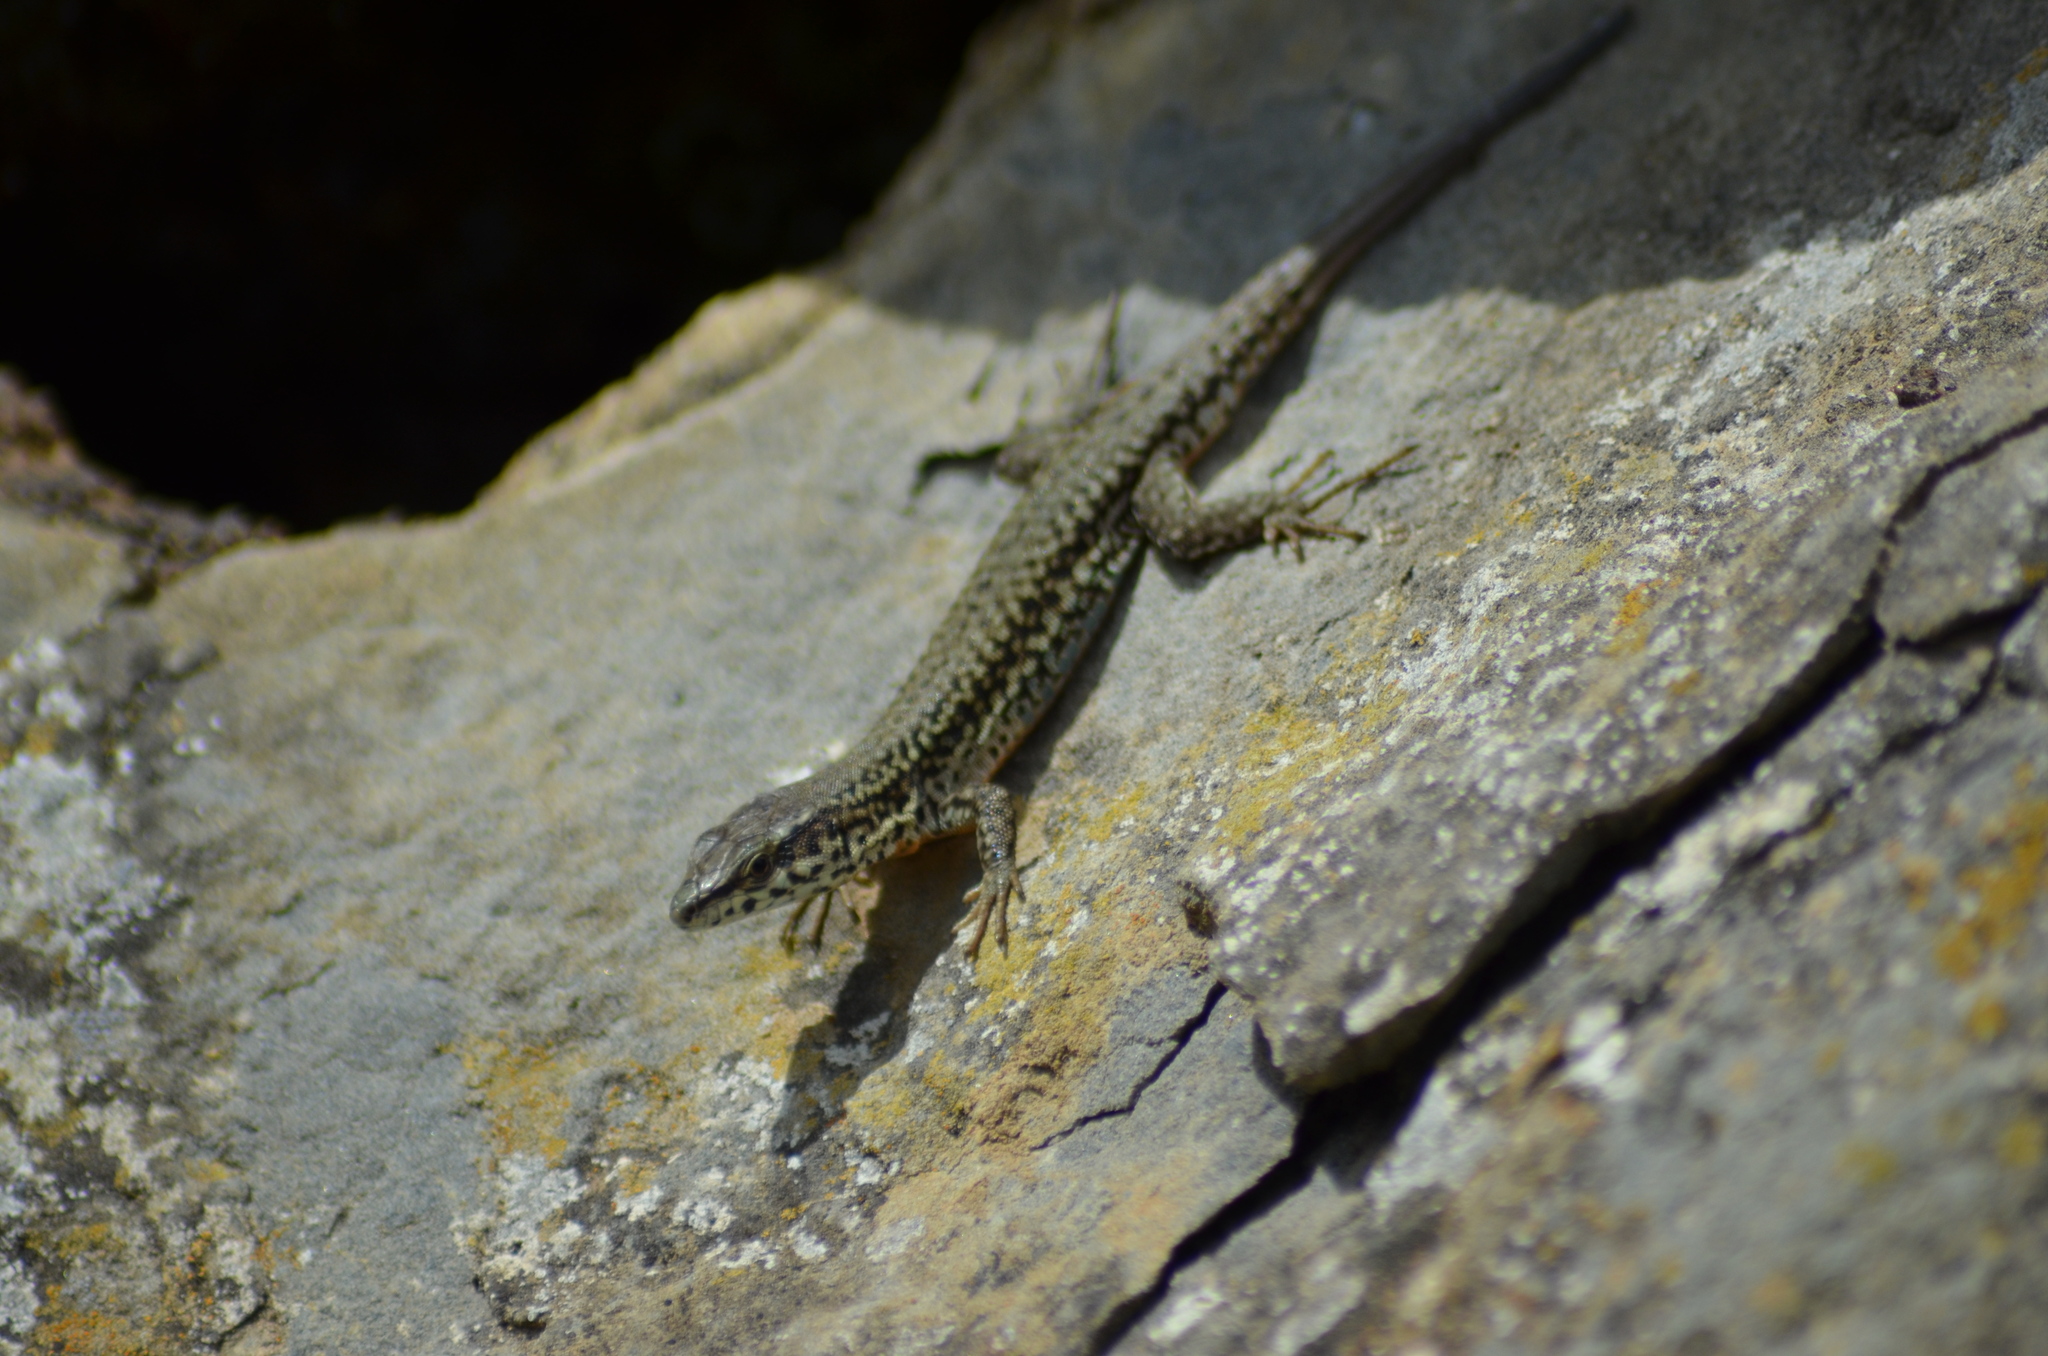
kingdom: Animalia
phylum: Chordata
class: Squamata
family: Lacertidae
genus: Podarcis
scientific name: Podarcis liolepis
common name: Catalonian wall lizard
